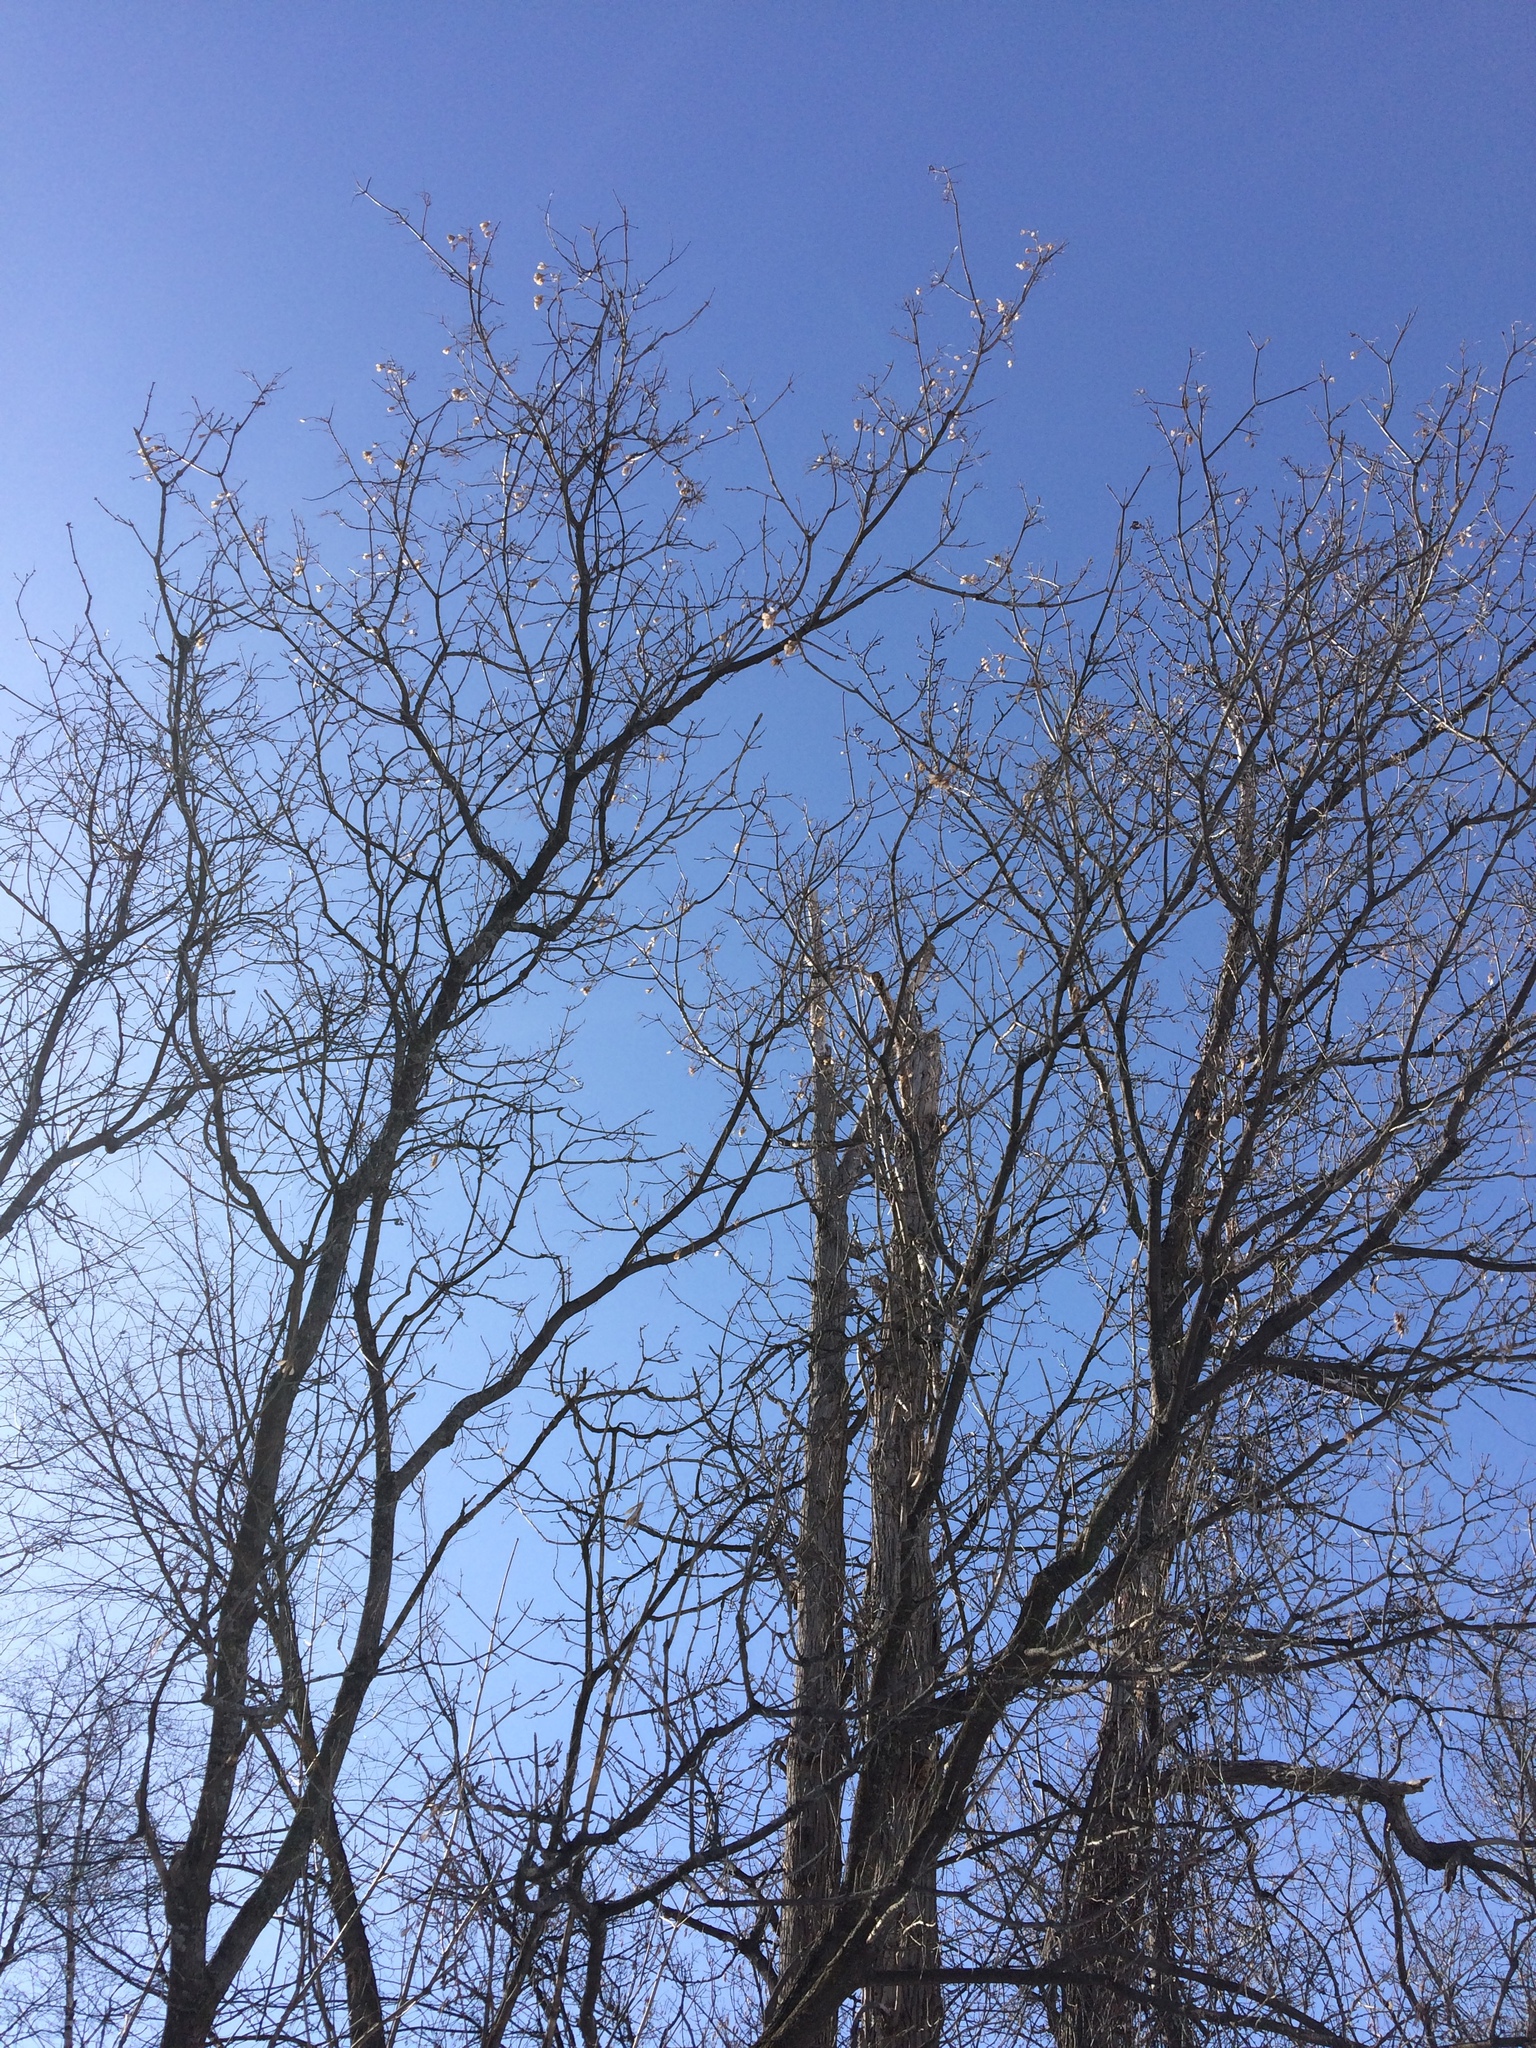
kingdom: Plantae
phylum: Tracheophyta
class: Magnoliopsida
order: Sapindales
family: Sapindaceae
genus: Acer
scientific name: Acer negundo
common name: Ashleaf maple
